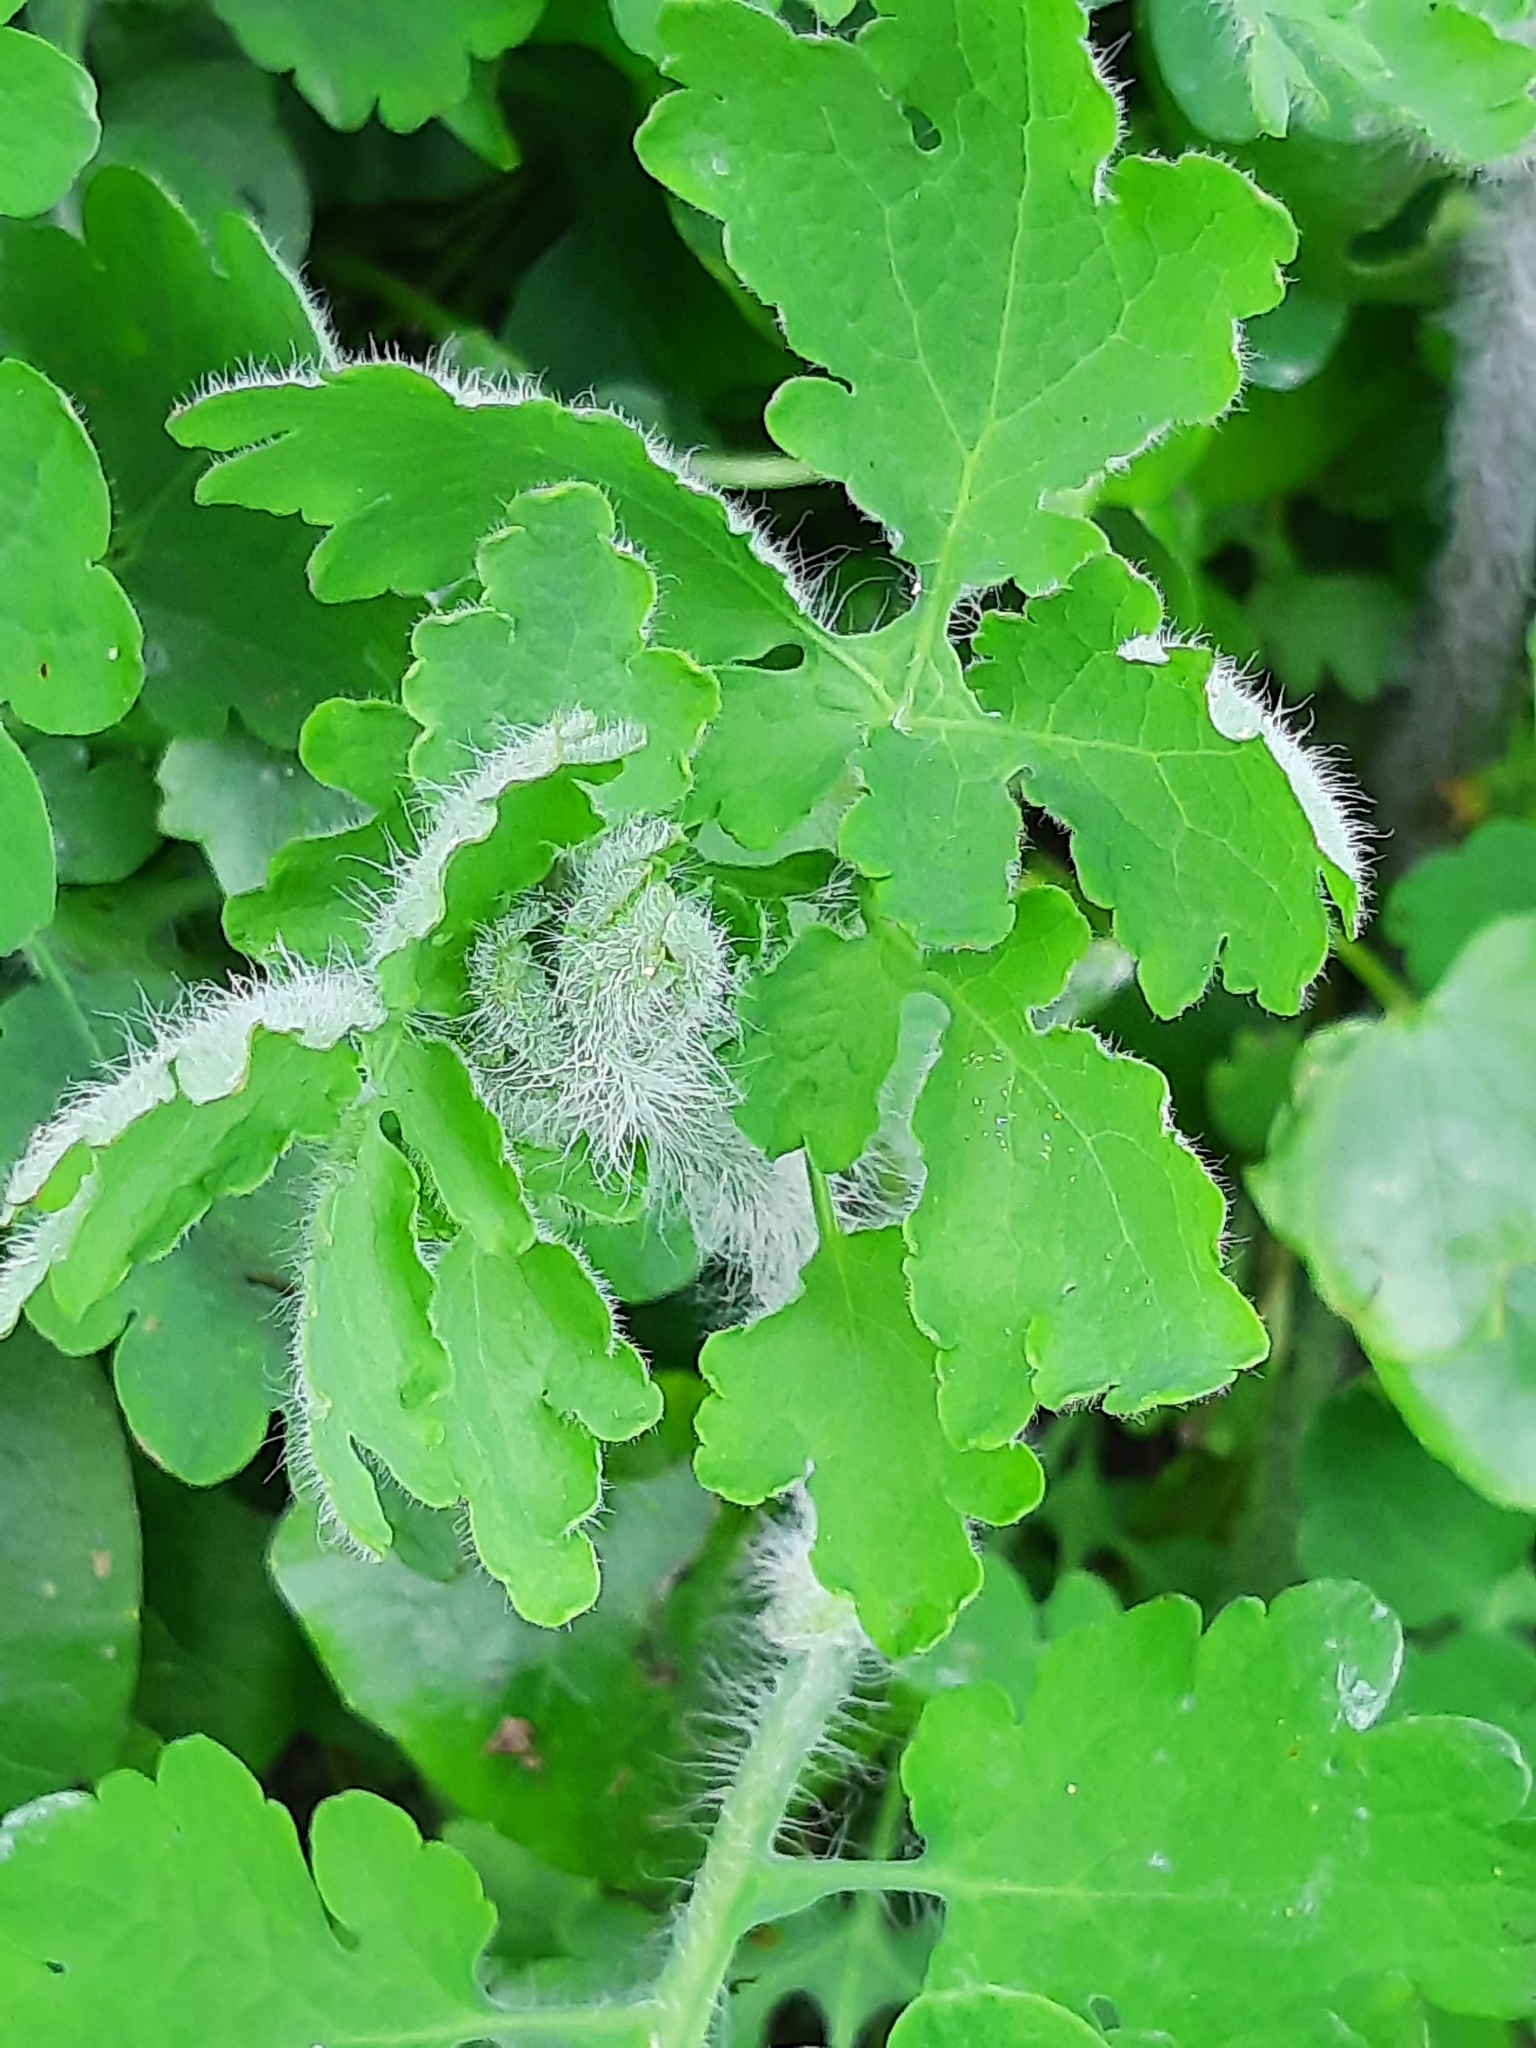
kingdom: Plantae
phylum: Tracheophyta
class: Magnoliopsida
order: Ranunculales
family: Papaveraceae
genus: Chelidonium
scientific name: Chelidonium majus
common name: Greater celandine
